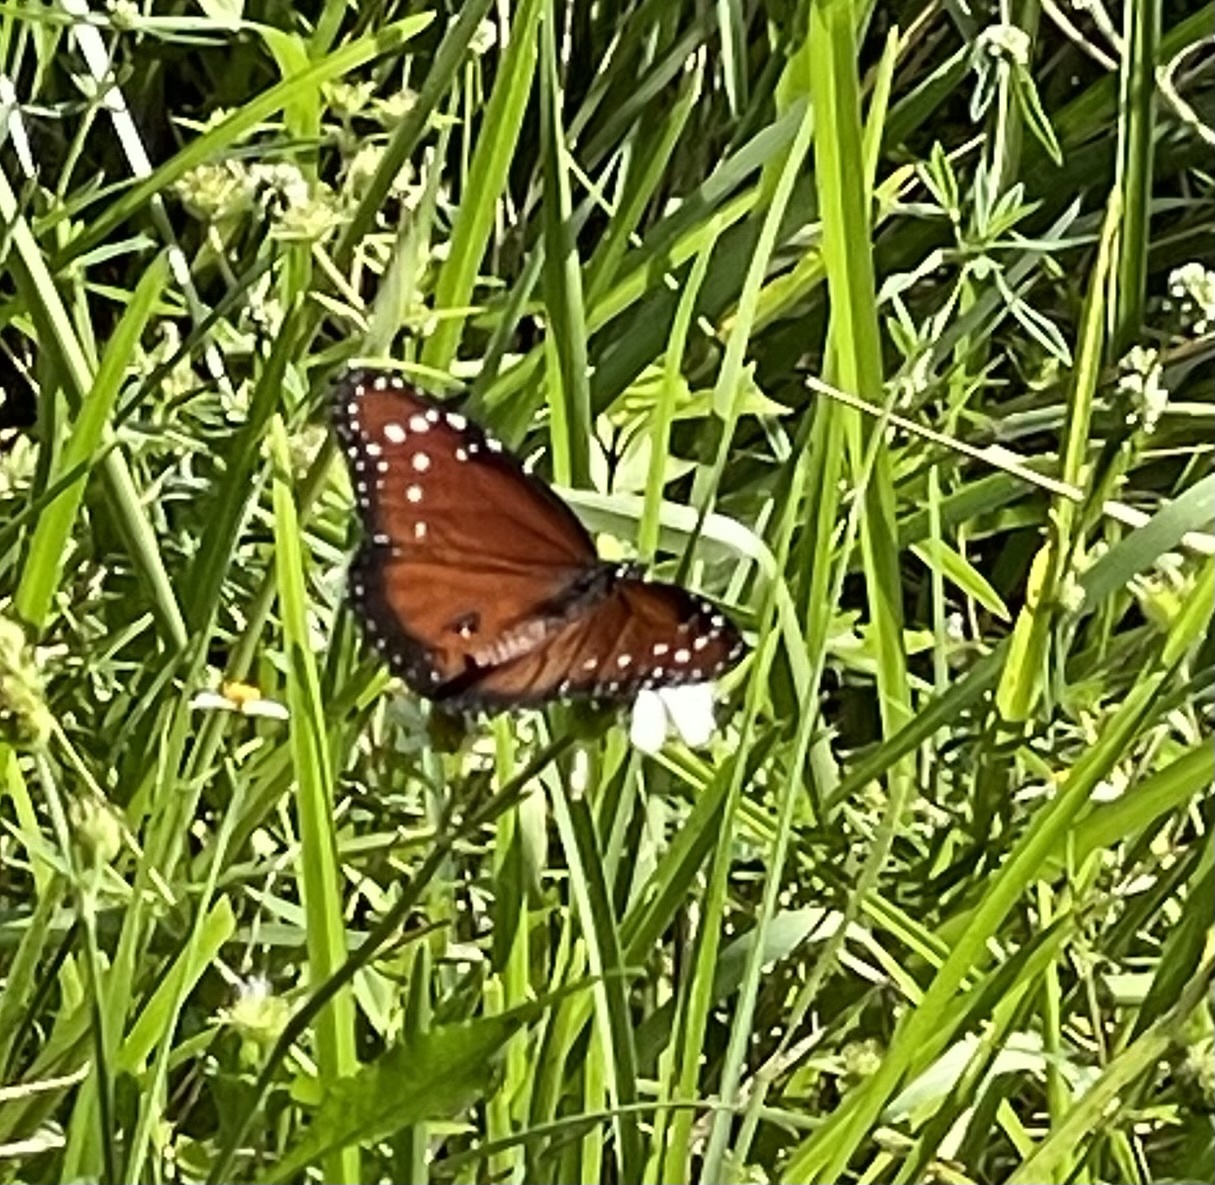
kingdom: Animalia
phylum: Arthropoda
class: Insecta
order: Lepidoptera
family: Nymphalidae
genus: Danaus
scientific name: Danaus gilippus
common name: Queen
